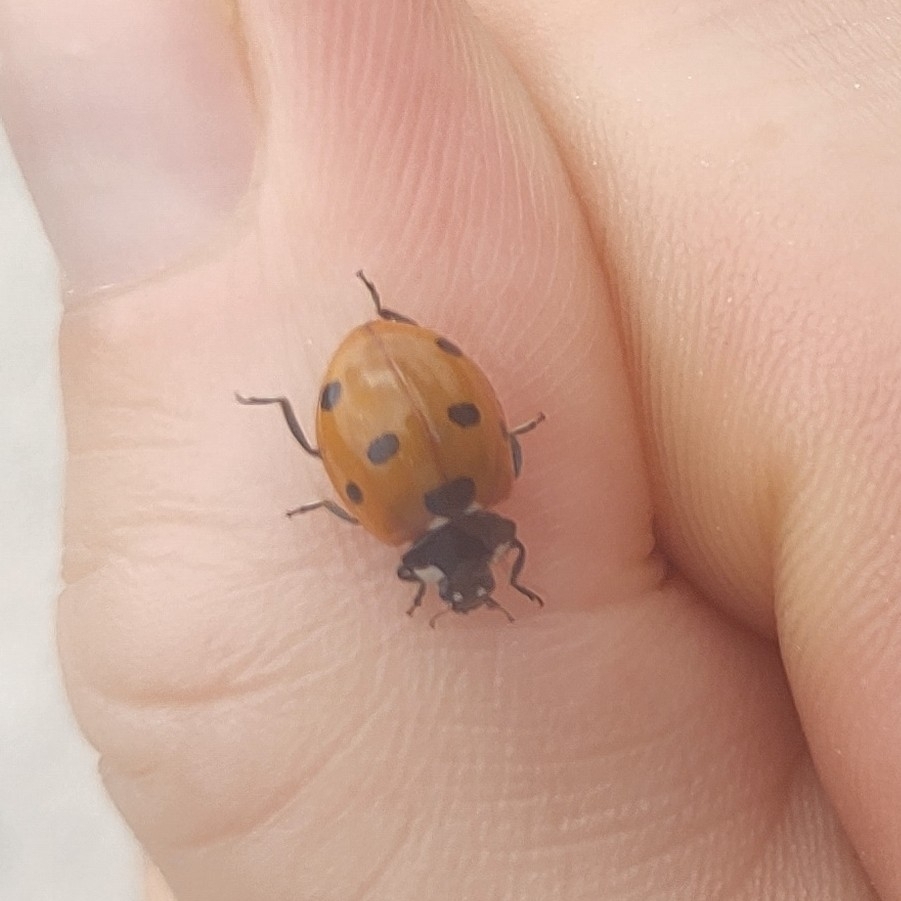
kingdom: Animalia
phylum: Arthropoda
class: Insecta
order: Coleoptera
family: Coccinellidae
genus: Coccinella
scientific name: Coccinella septempunctata
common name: Sevenspotted lady beetle
